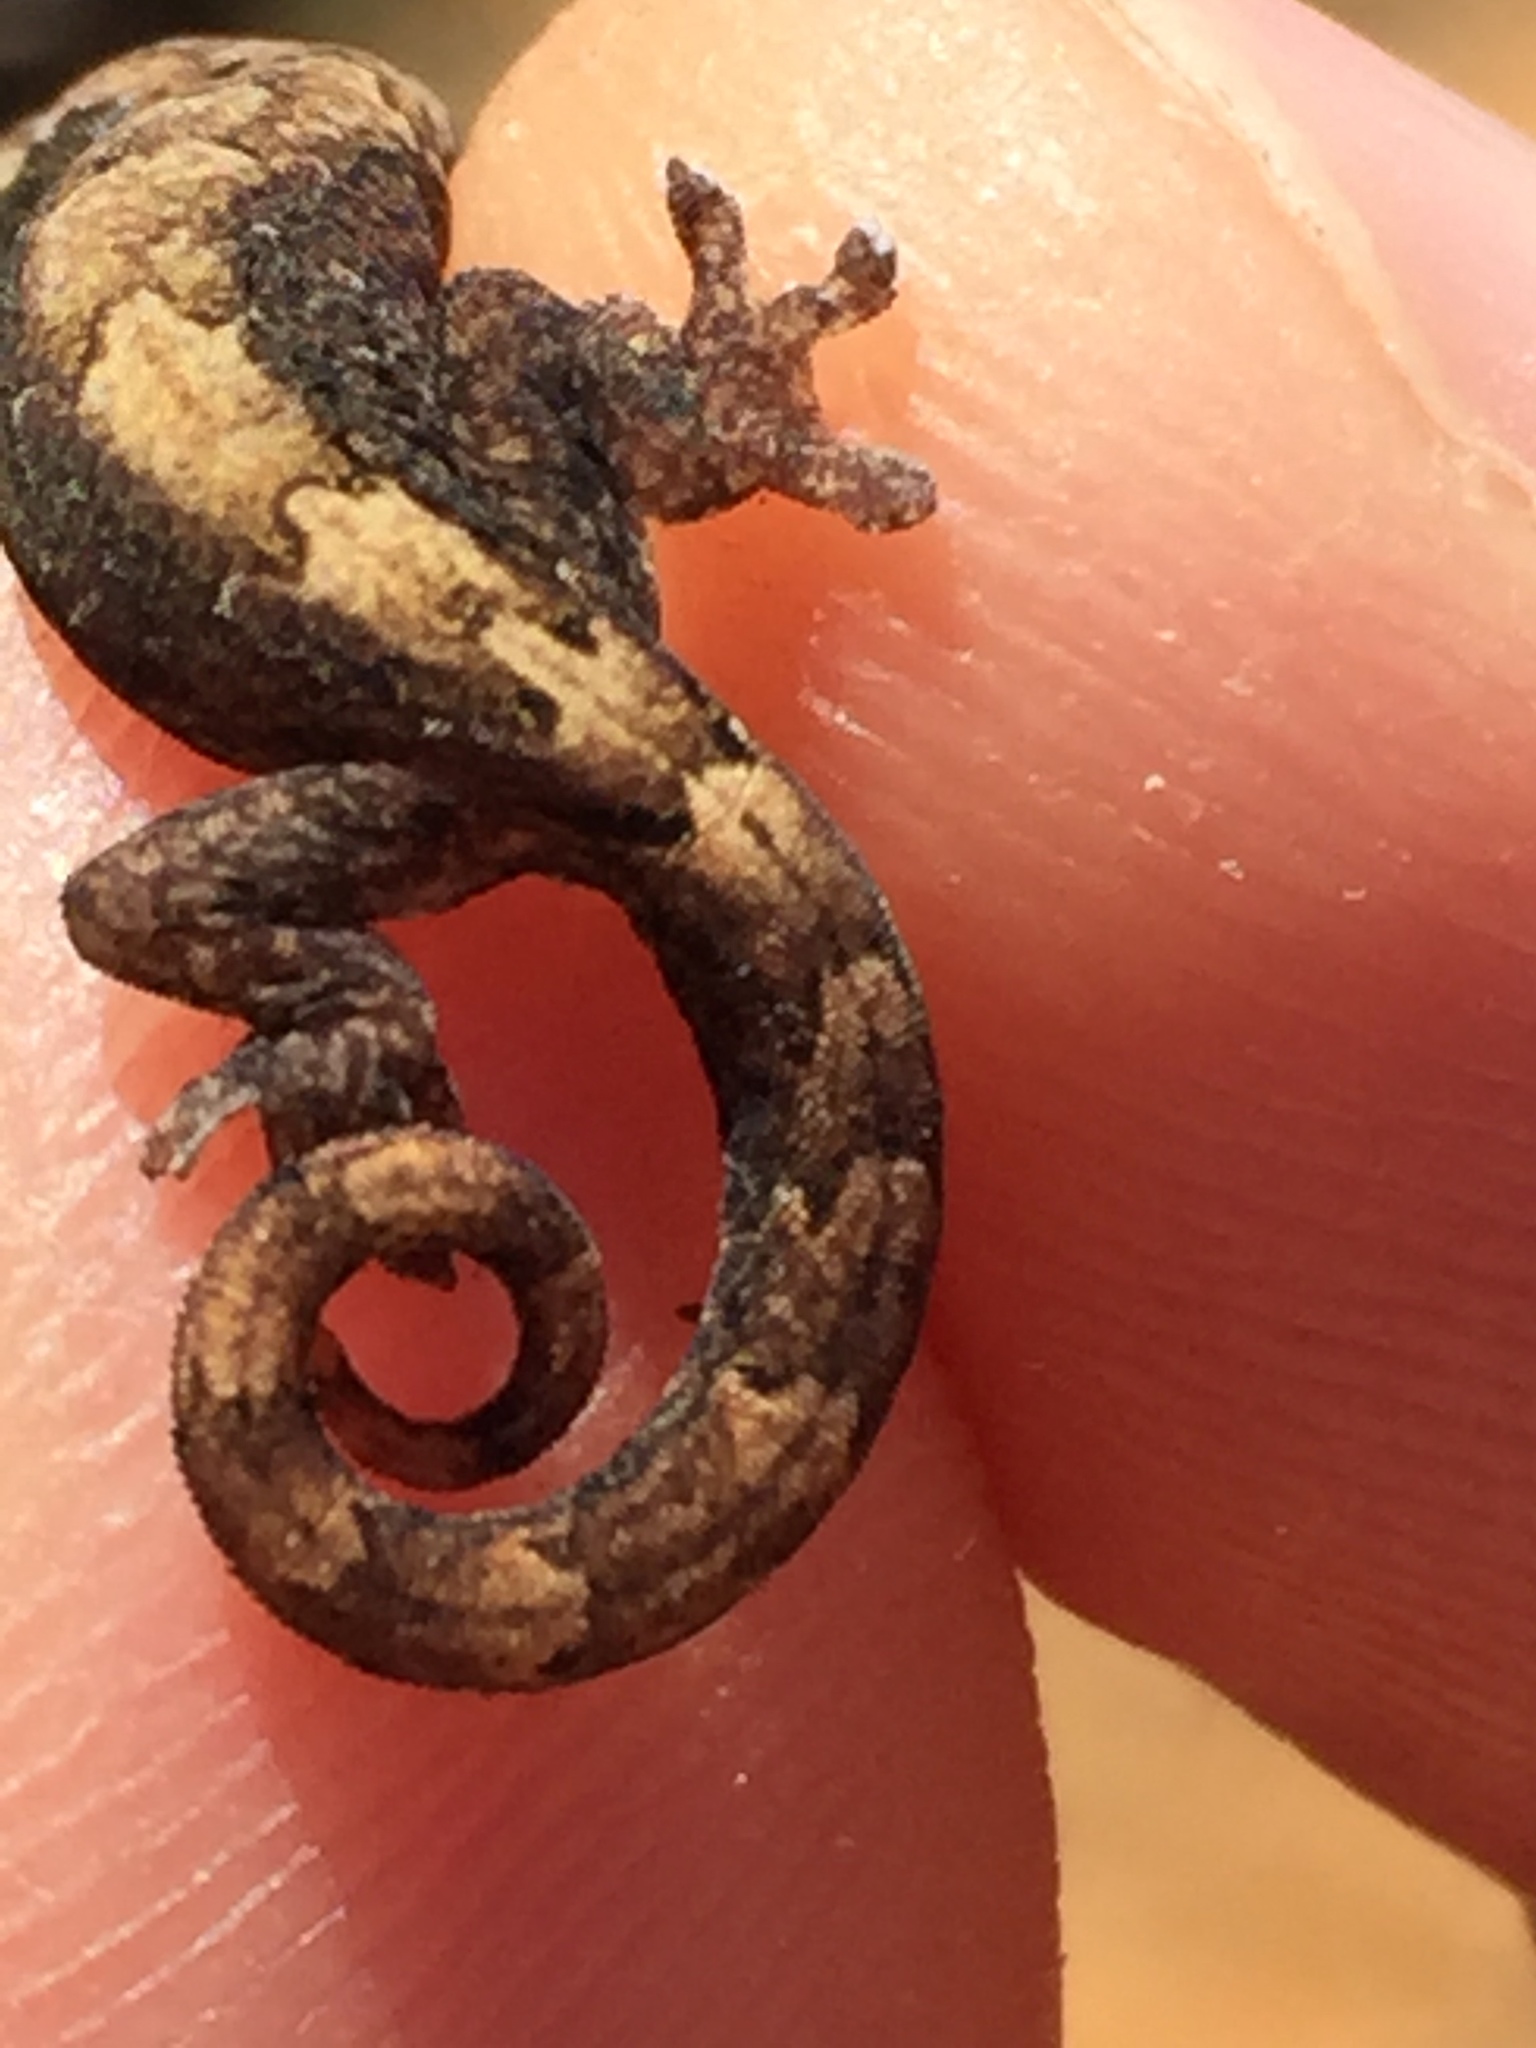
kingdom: Animalia
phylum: Chordata
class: Squamata
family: Gekkonidae
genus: Lepidodactylus
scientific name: Lepidodactylus lugubris
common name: Mourning gecko
